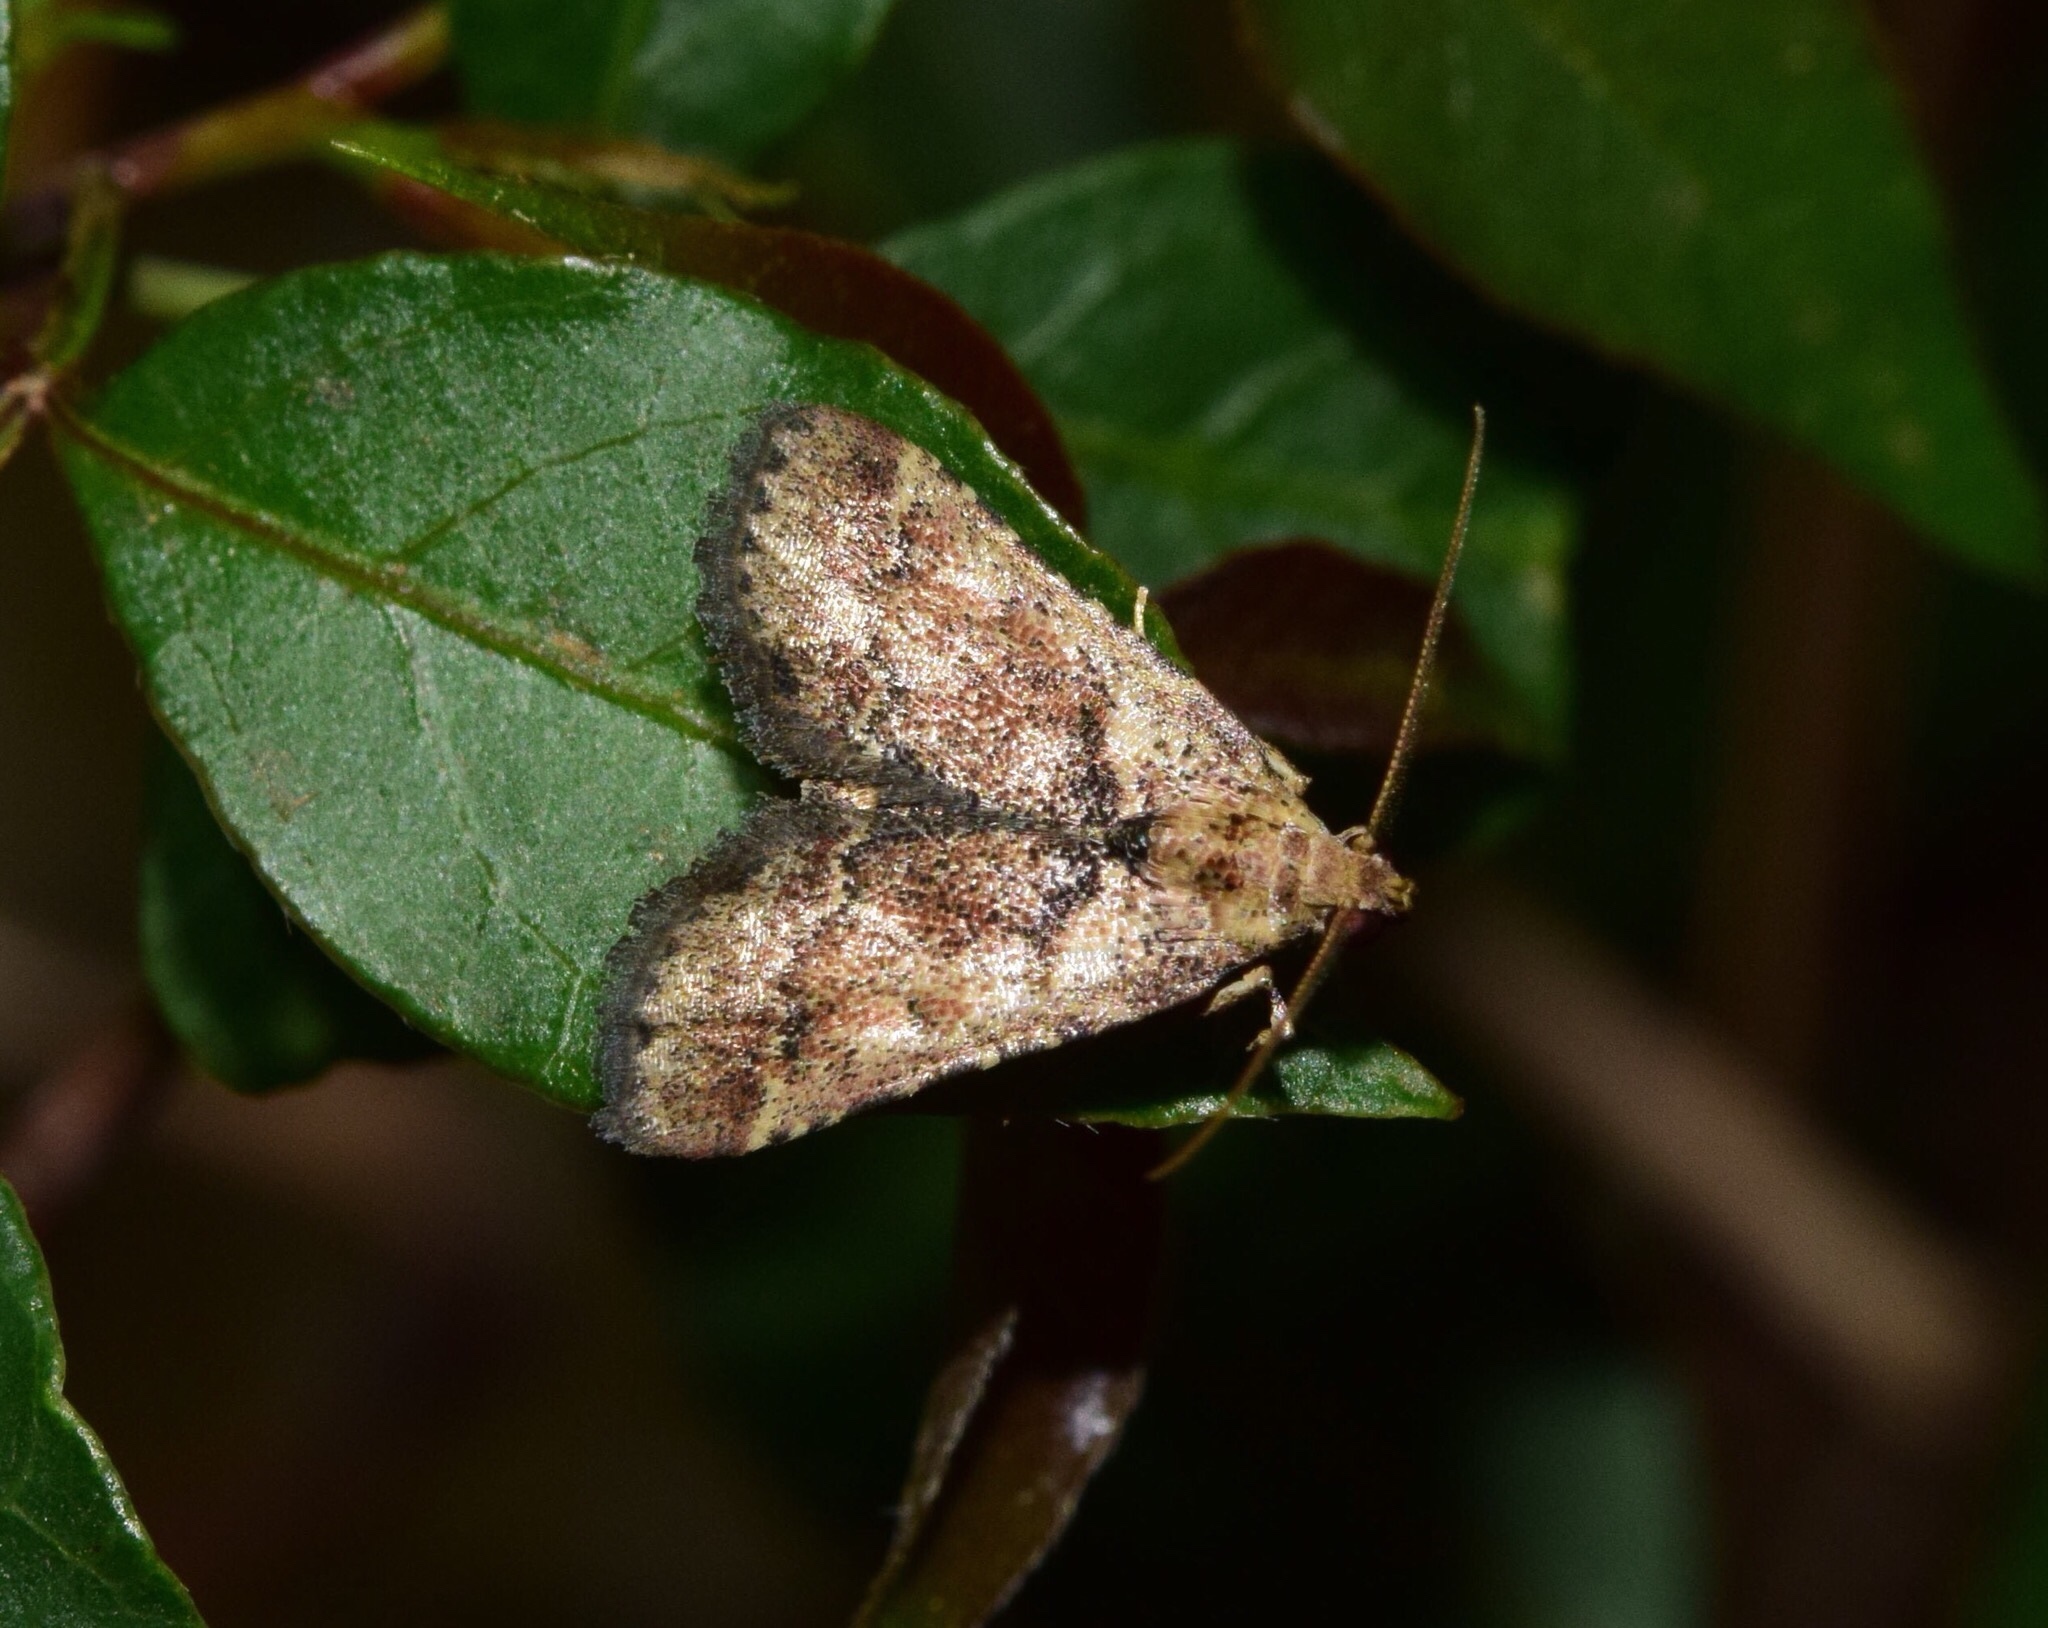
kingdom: Animalia
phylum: Arthropoda
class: Insecta
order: Lepidoptera
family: Pyralidae
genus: Tegulifera
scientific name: Tegulifera tristiculalis
